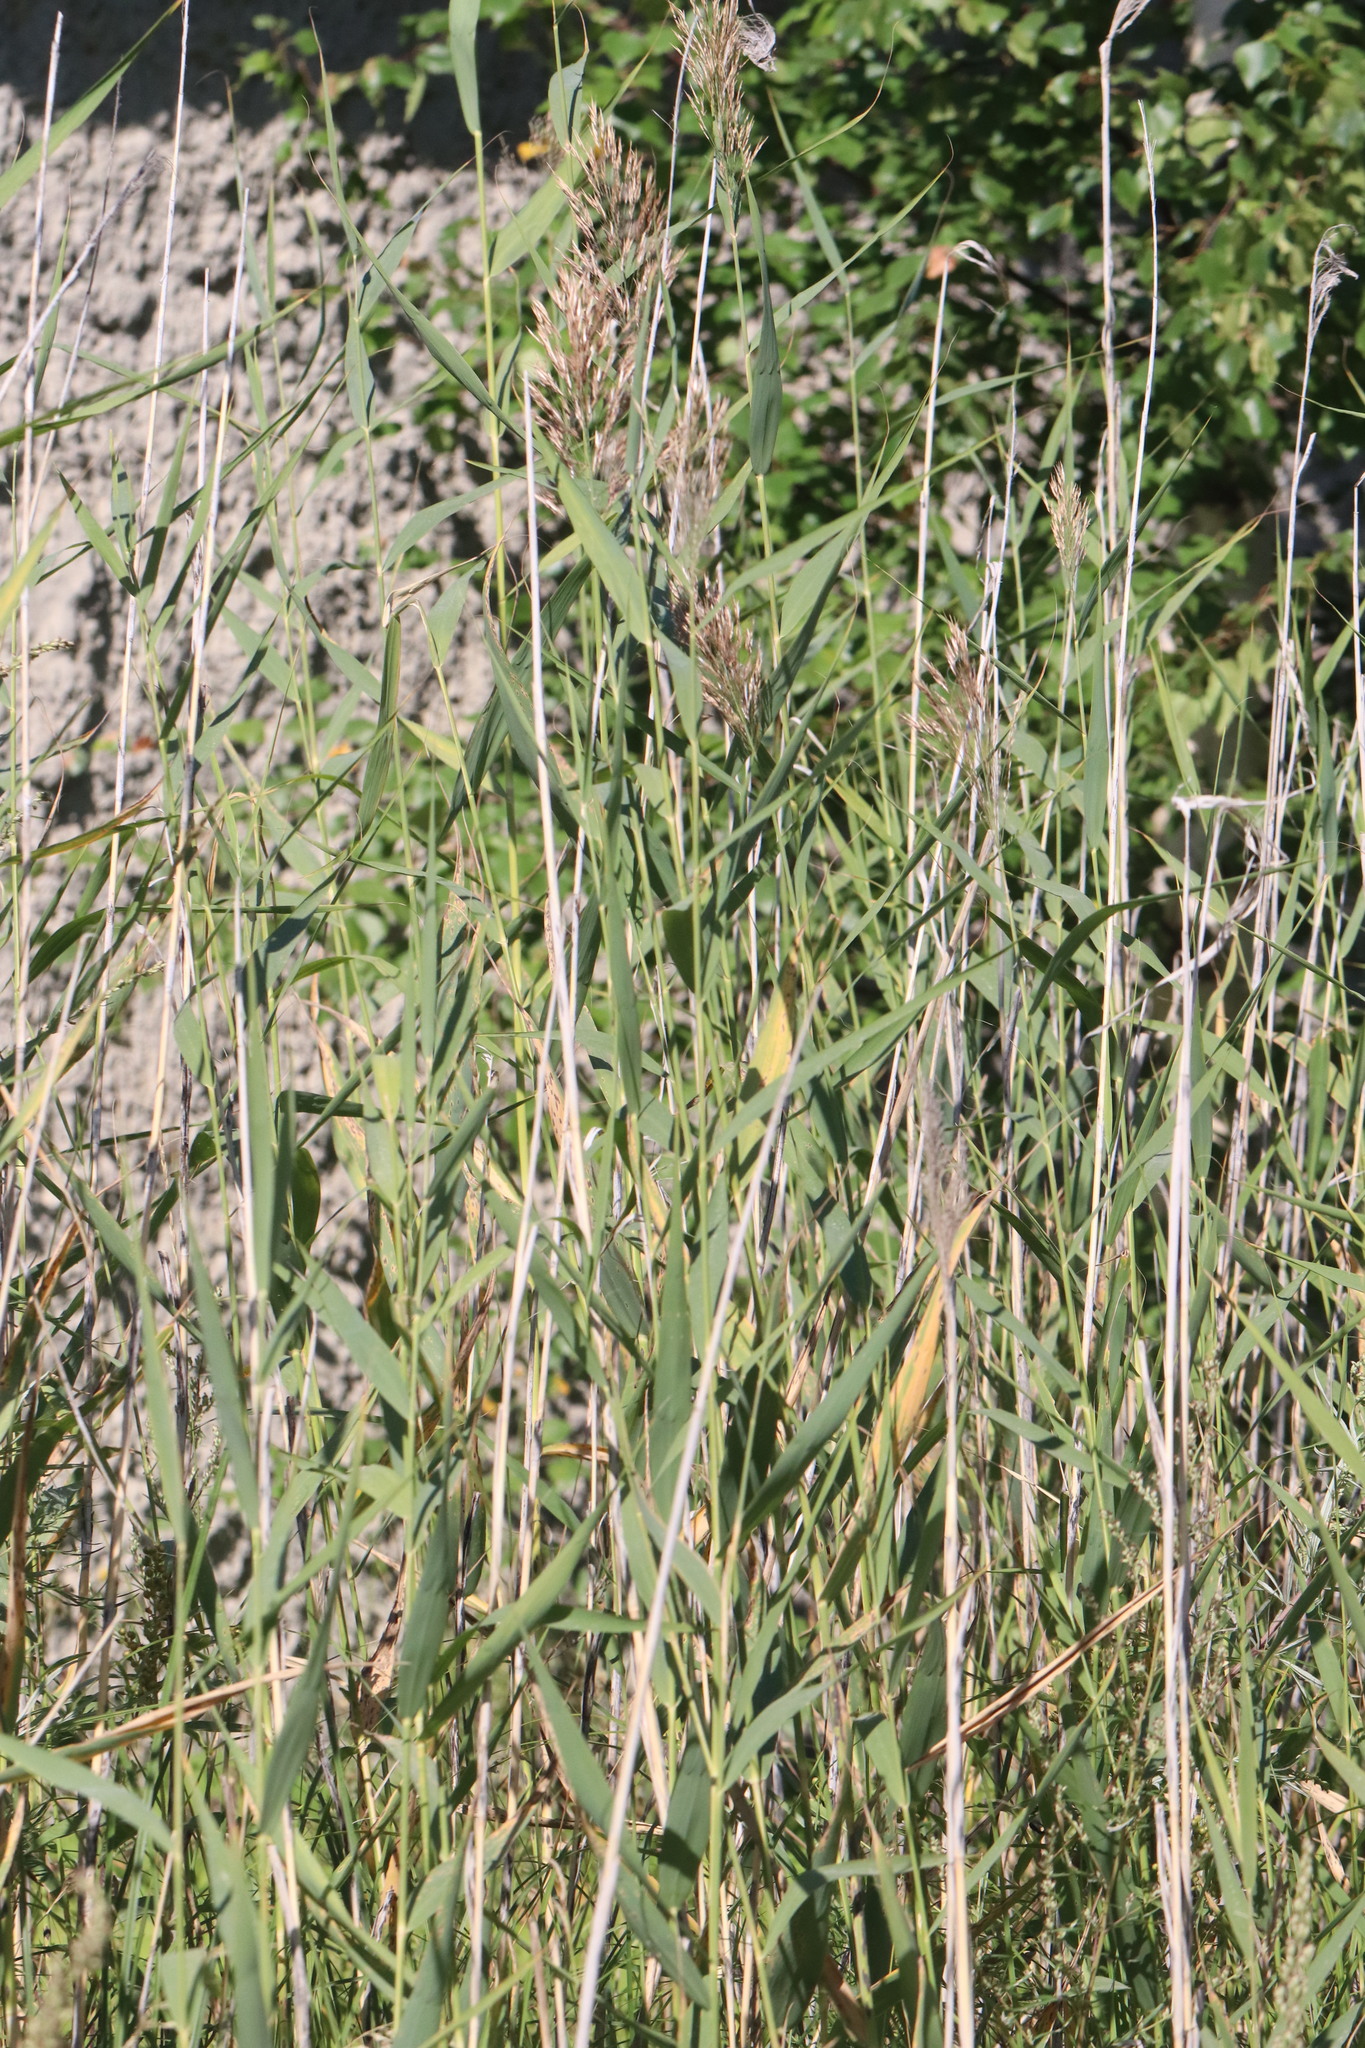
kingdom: Plantae
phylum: Tracheophyta
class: Liliopsida
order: Poales
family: Poaceae
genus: Phragmites
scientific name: Phragmites australis
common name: Common reed
